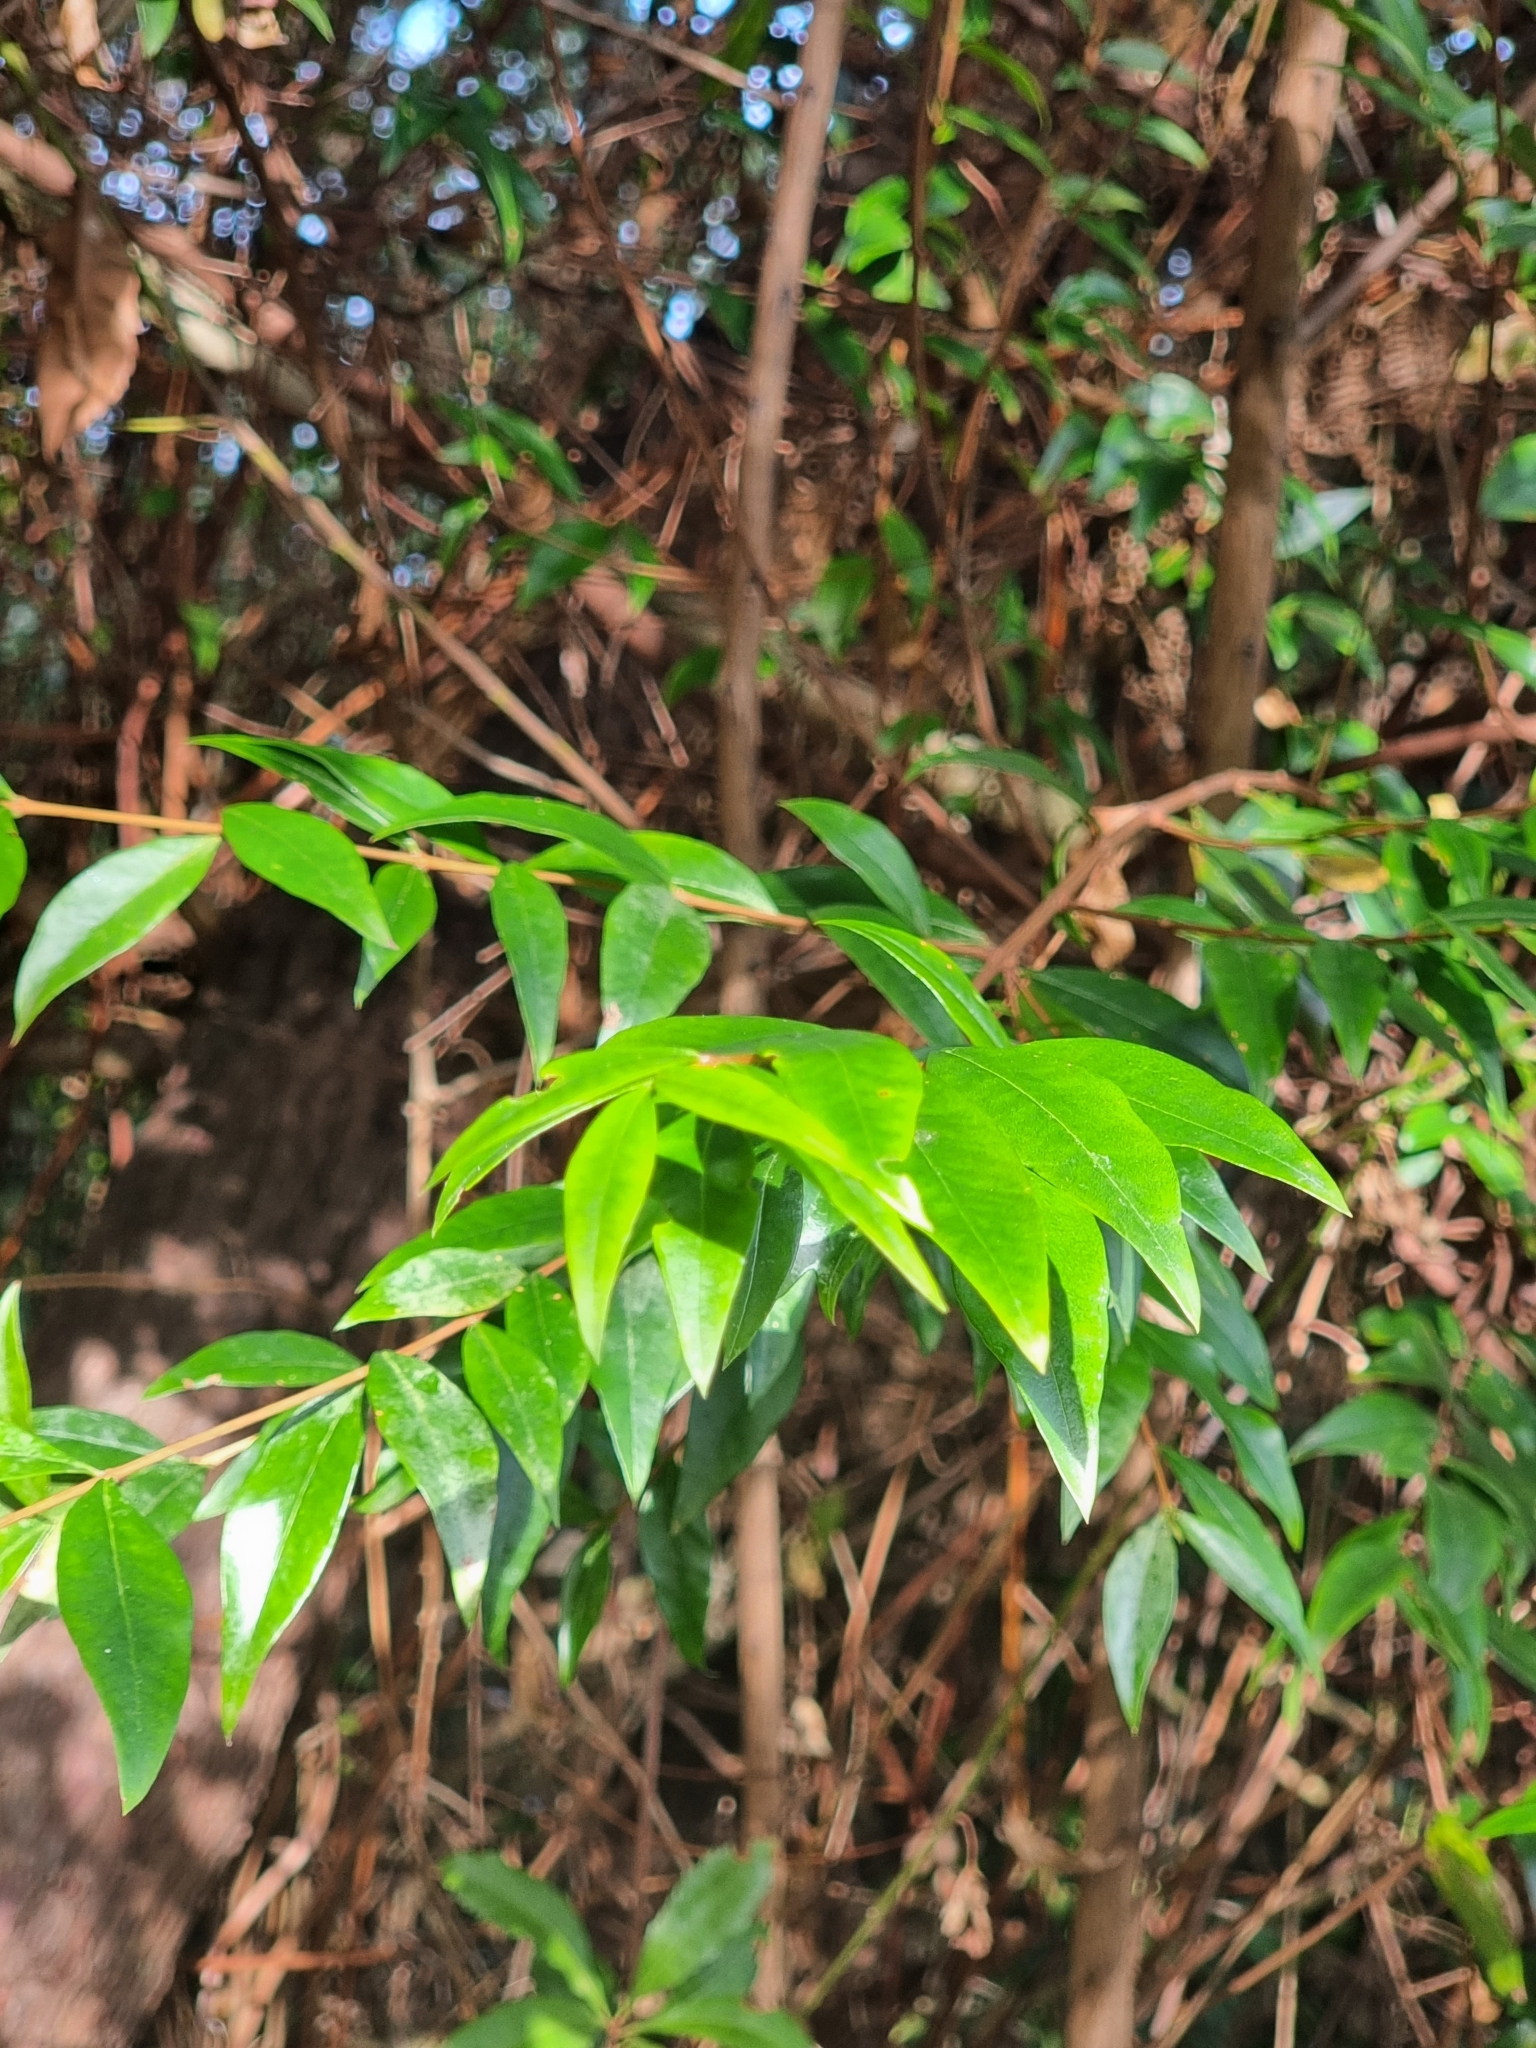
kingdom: Plantae
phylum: Tracheophyta
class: Magnoliopsida
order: Myrtales
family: Myrtaceae
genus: Myrtus
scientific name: Myrtus communis
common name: Myrtle
